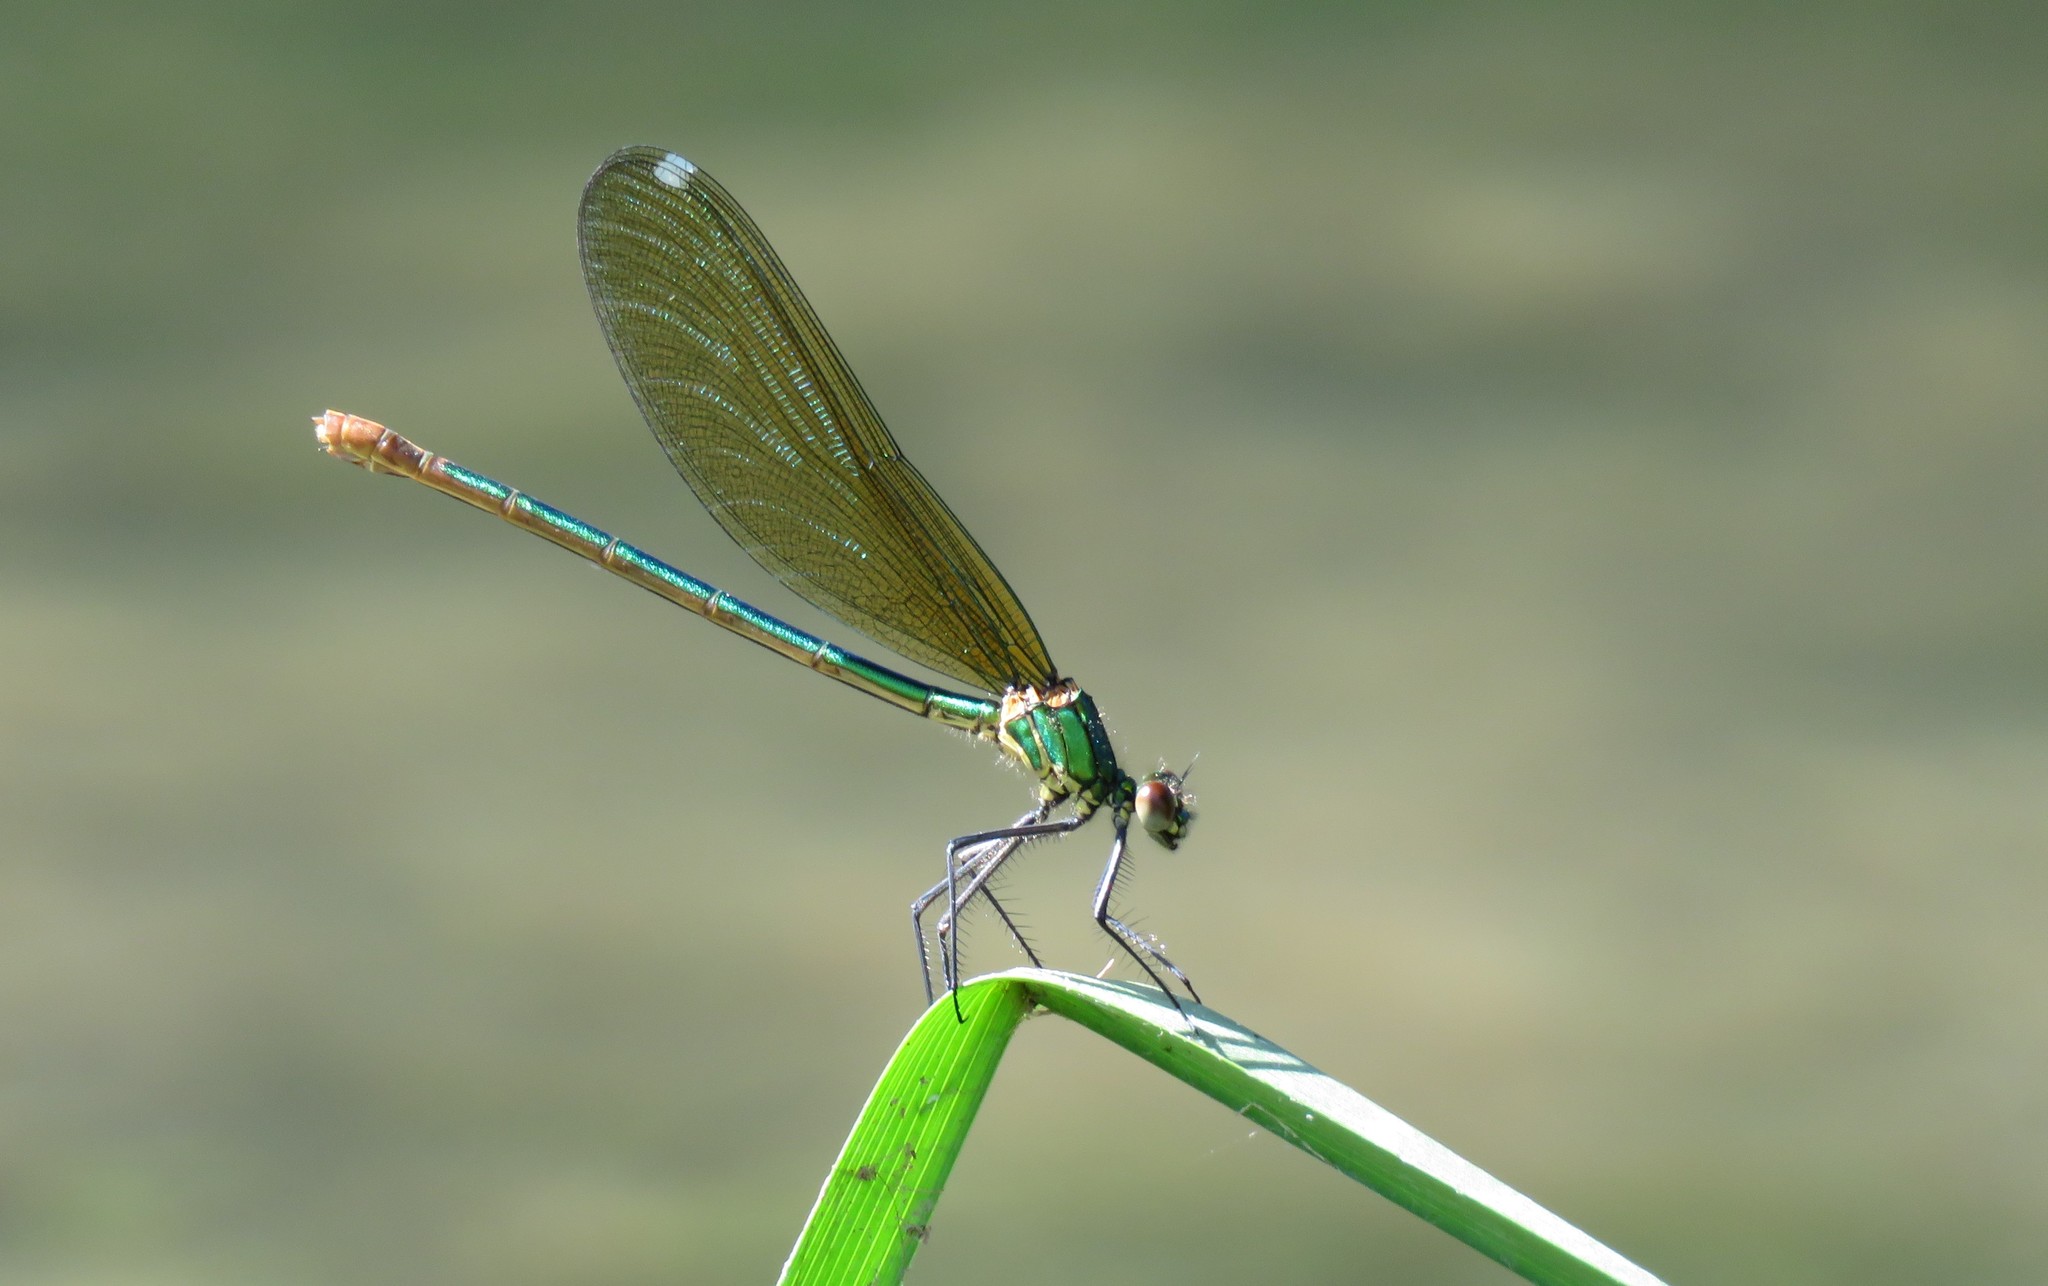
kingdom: Animalia
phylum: Arthropoda
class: Insecta
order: Odonata
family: Calopterygidae
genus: Calopteryx
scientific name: Calopteryx xanthostoma
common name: Western demoiselle
